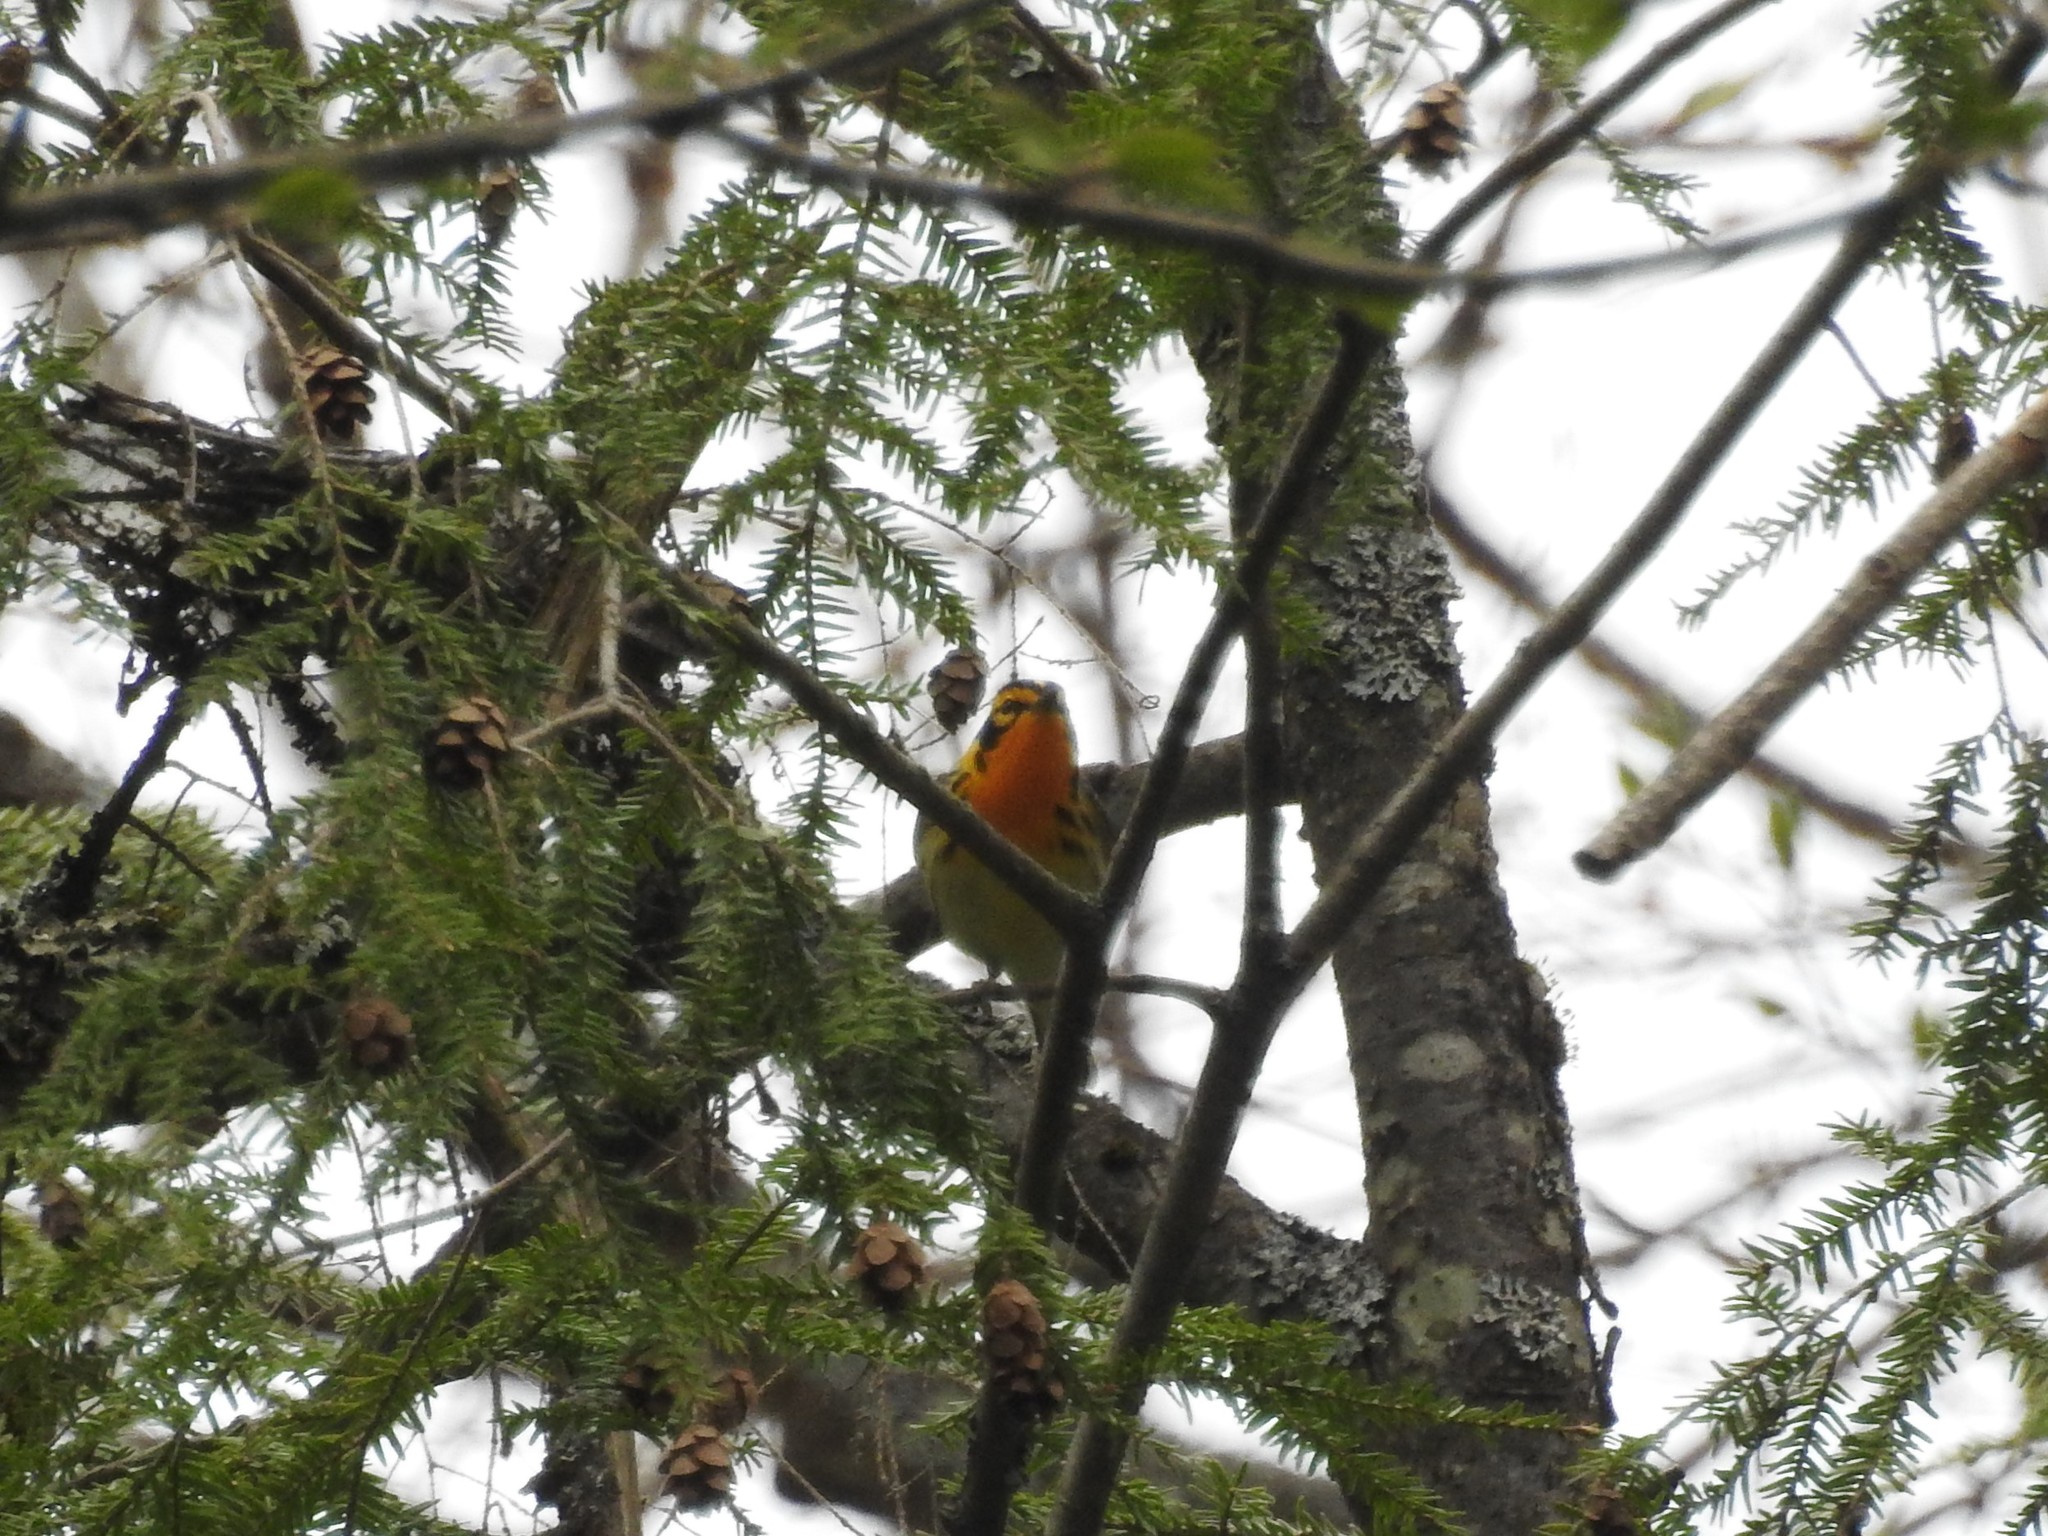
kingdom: Animalia
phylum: Chordata
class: Aves
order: Passeriformes
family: Parulidae
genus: Setophaga
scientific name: Setophaga fusca
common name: Blackburnian warbler
